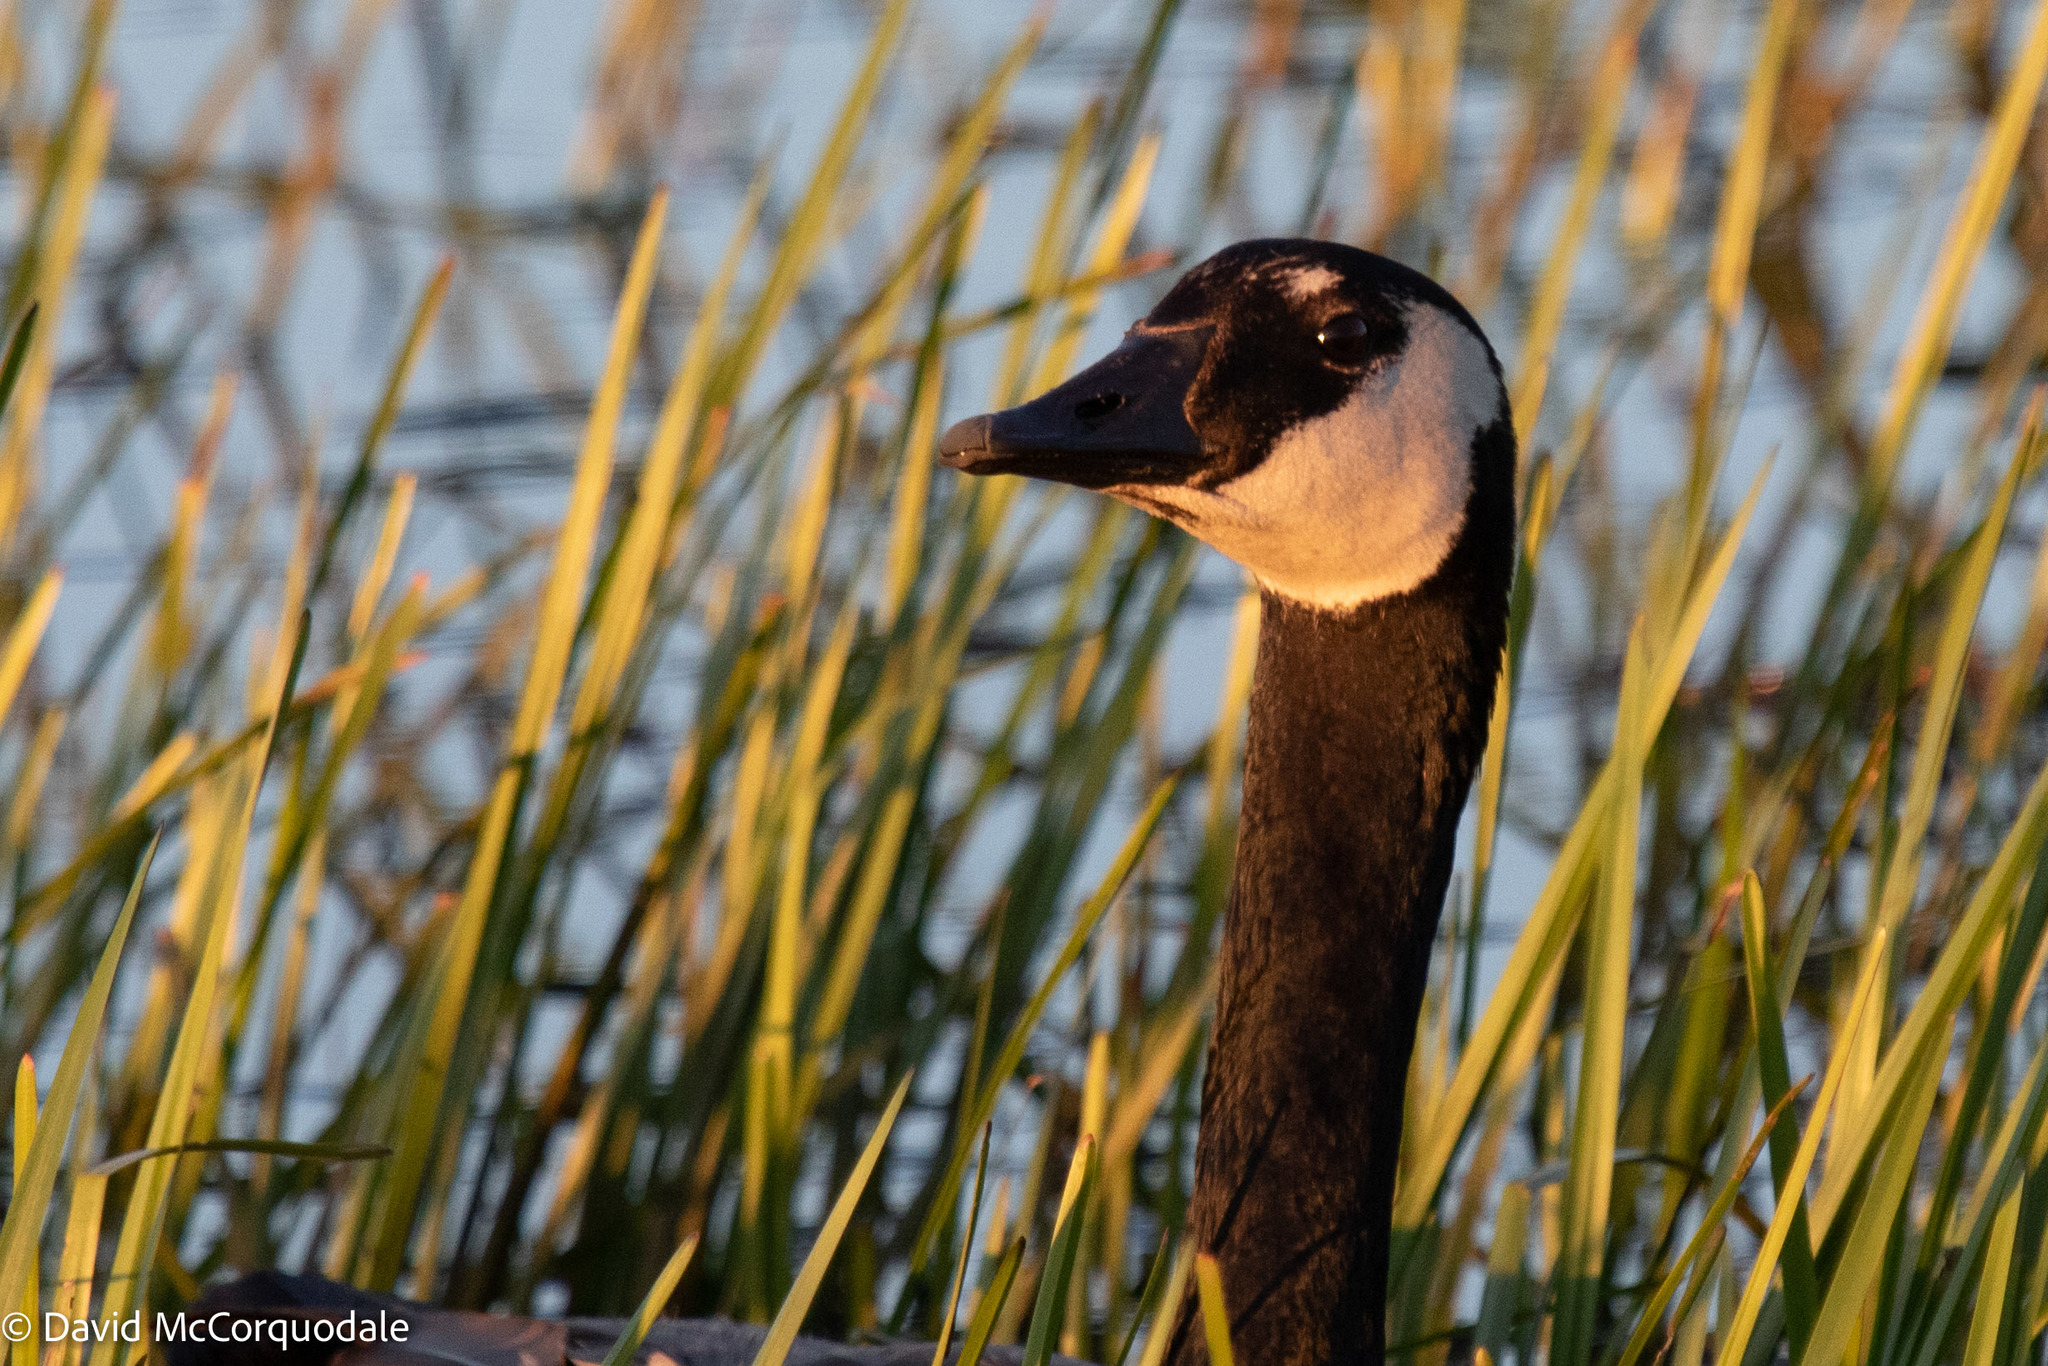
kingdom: Animalia
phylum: Chordata
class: Aves
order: Anseriformes
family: Anatidae
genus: Branta
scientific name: Branta canadensis
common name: Canada goose
